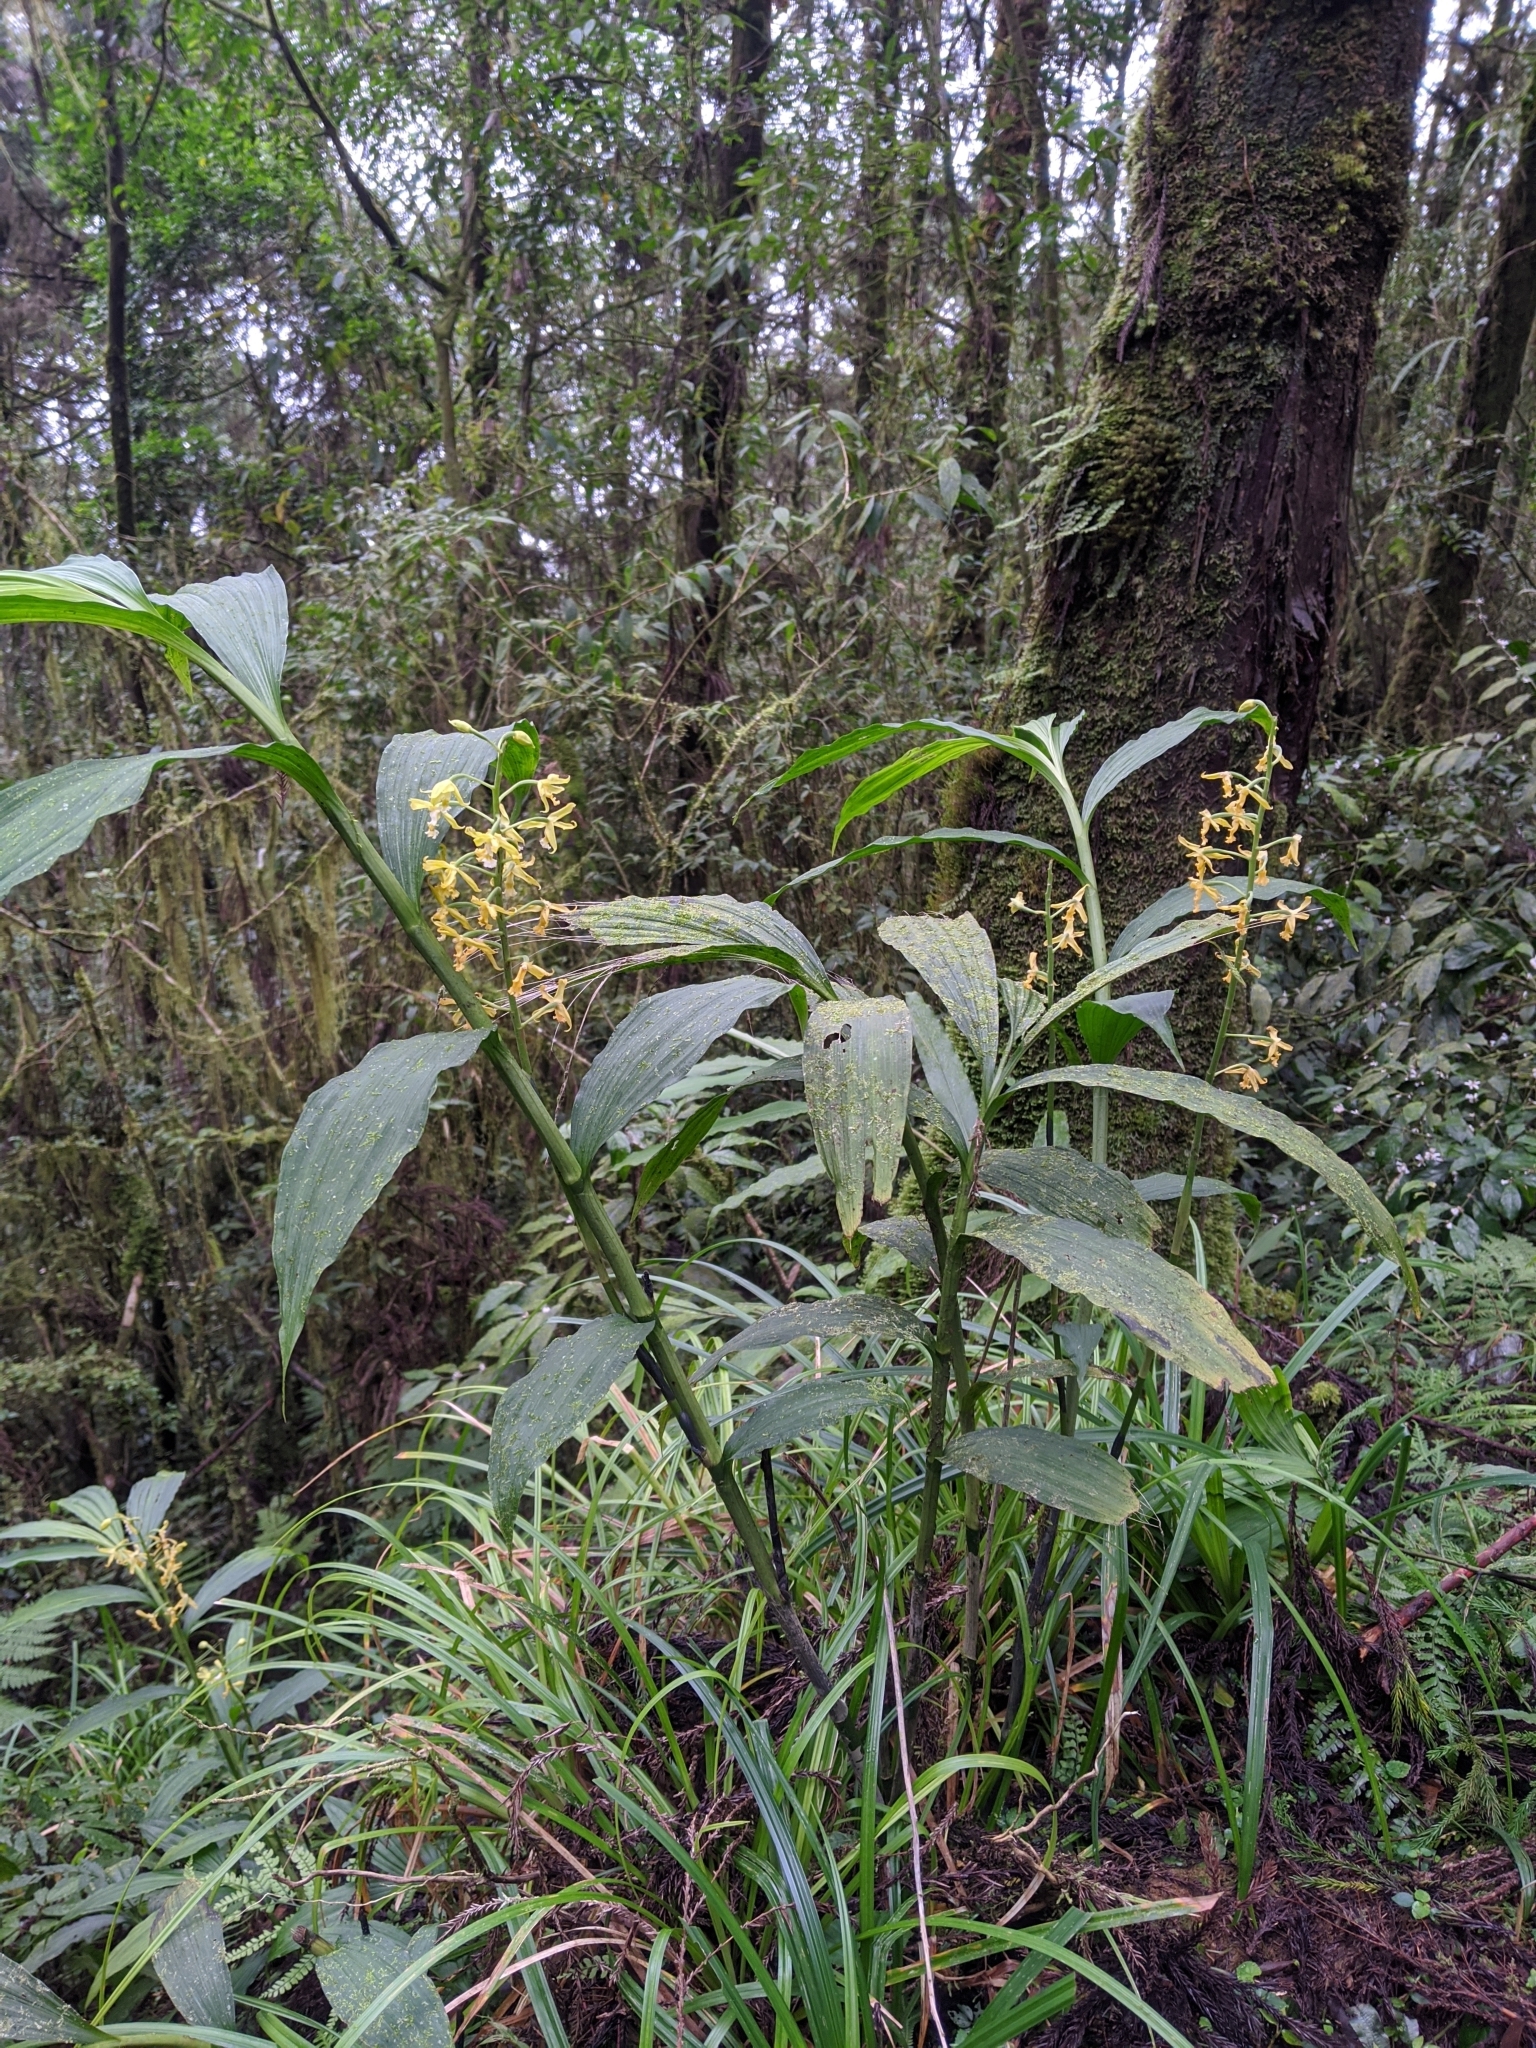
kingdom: Plantae
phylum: Tracheophyta
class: Liliopsida
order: Asparagales
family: Orchidaceae
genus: Calanthe
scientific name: Calanthe obcordata
